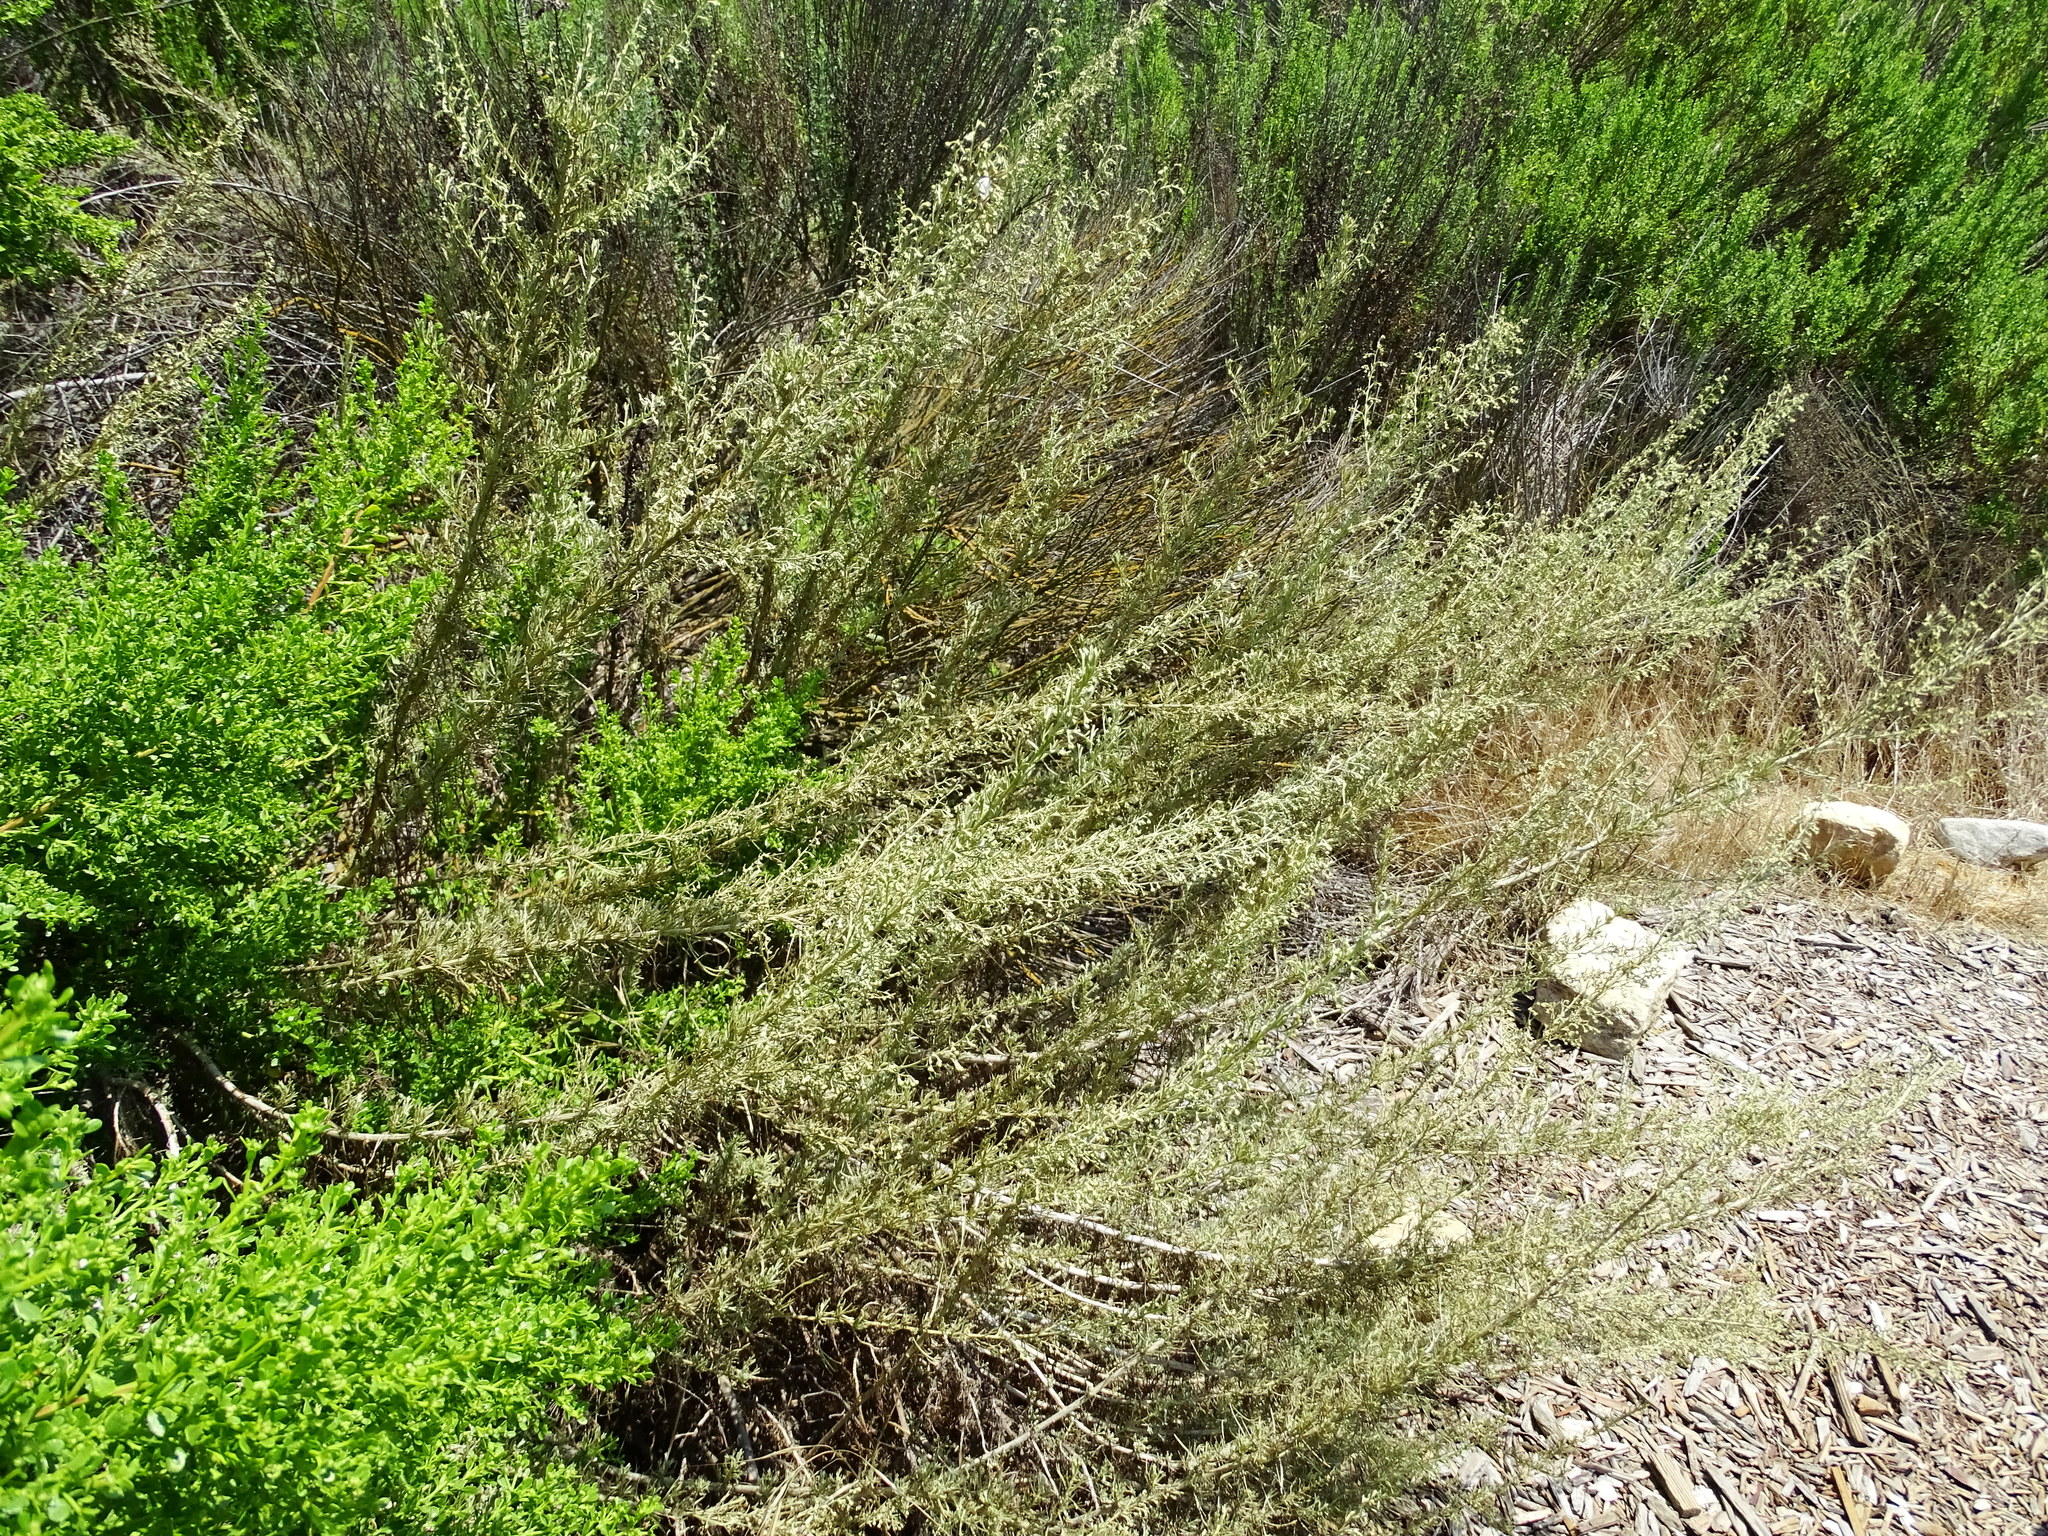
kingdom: Plantae
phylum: Tracheophyta
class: Magnoliopsida
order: Asterales
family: Asteraceae
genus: Artemisia
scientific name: Artemisia californica
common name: California sagebrush
